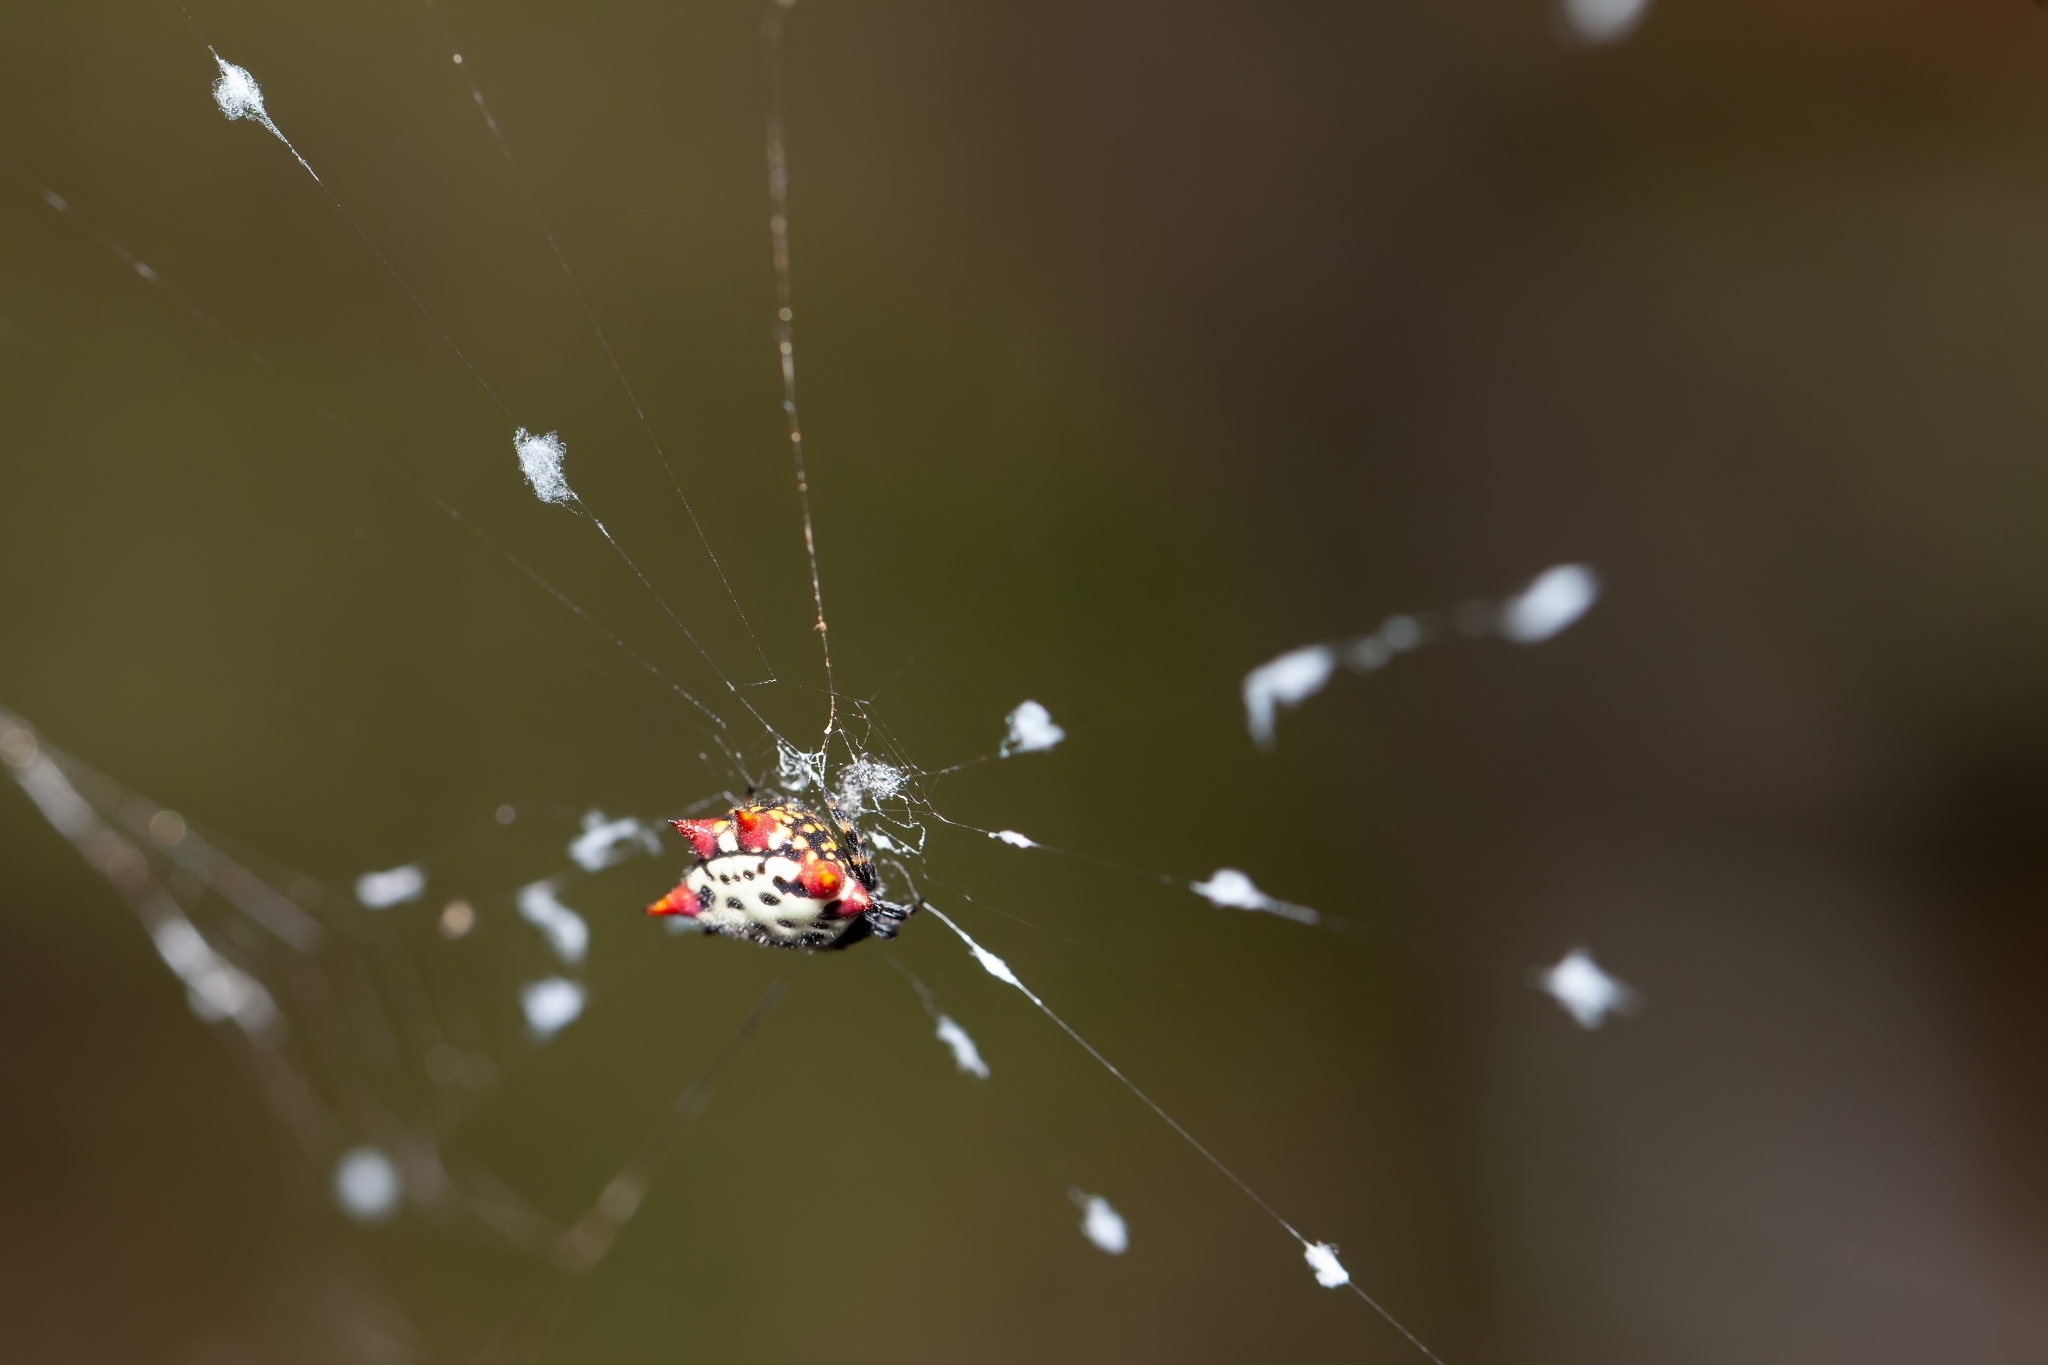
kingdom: Animalia
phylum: Arthropoda
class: Arachnida
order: Araneae
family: Araneidae
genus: Gasteracantha
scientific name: Gasteracantha cancriformis
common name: Orb weavers
